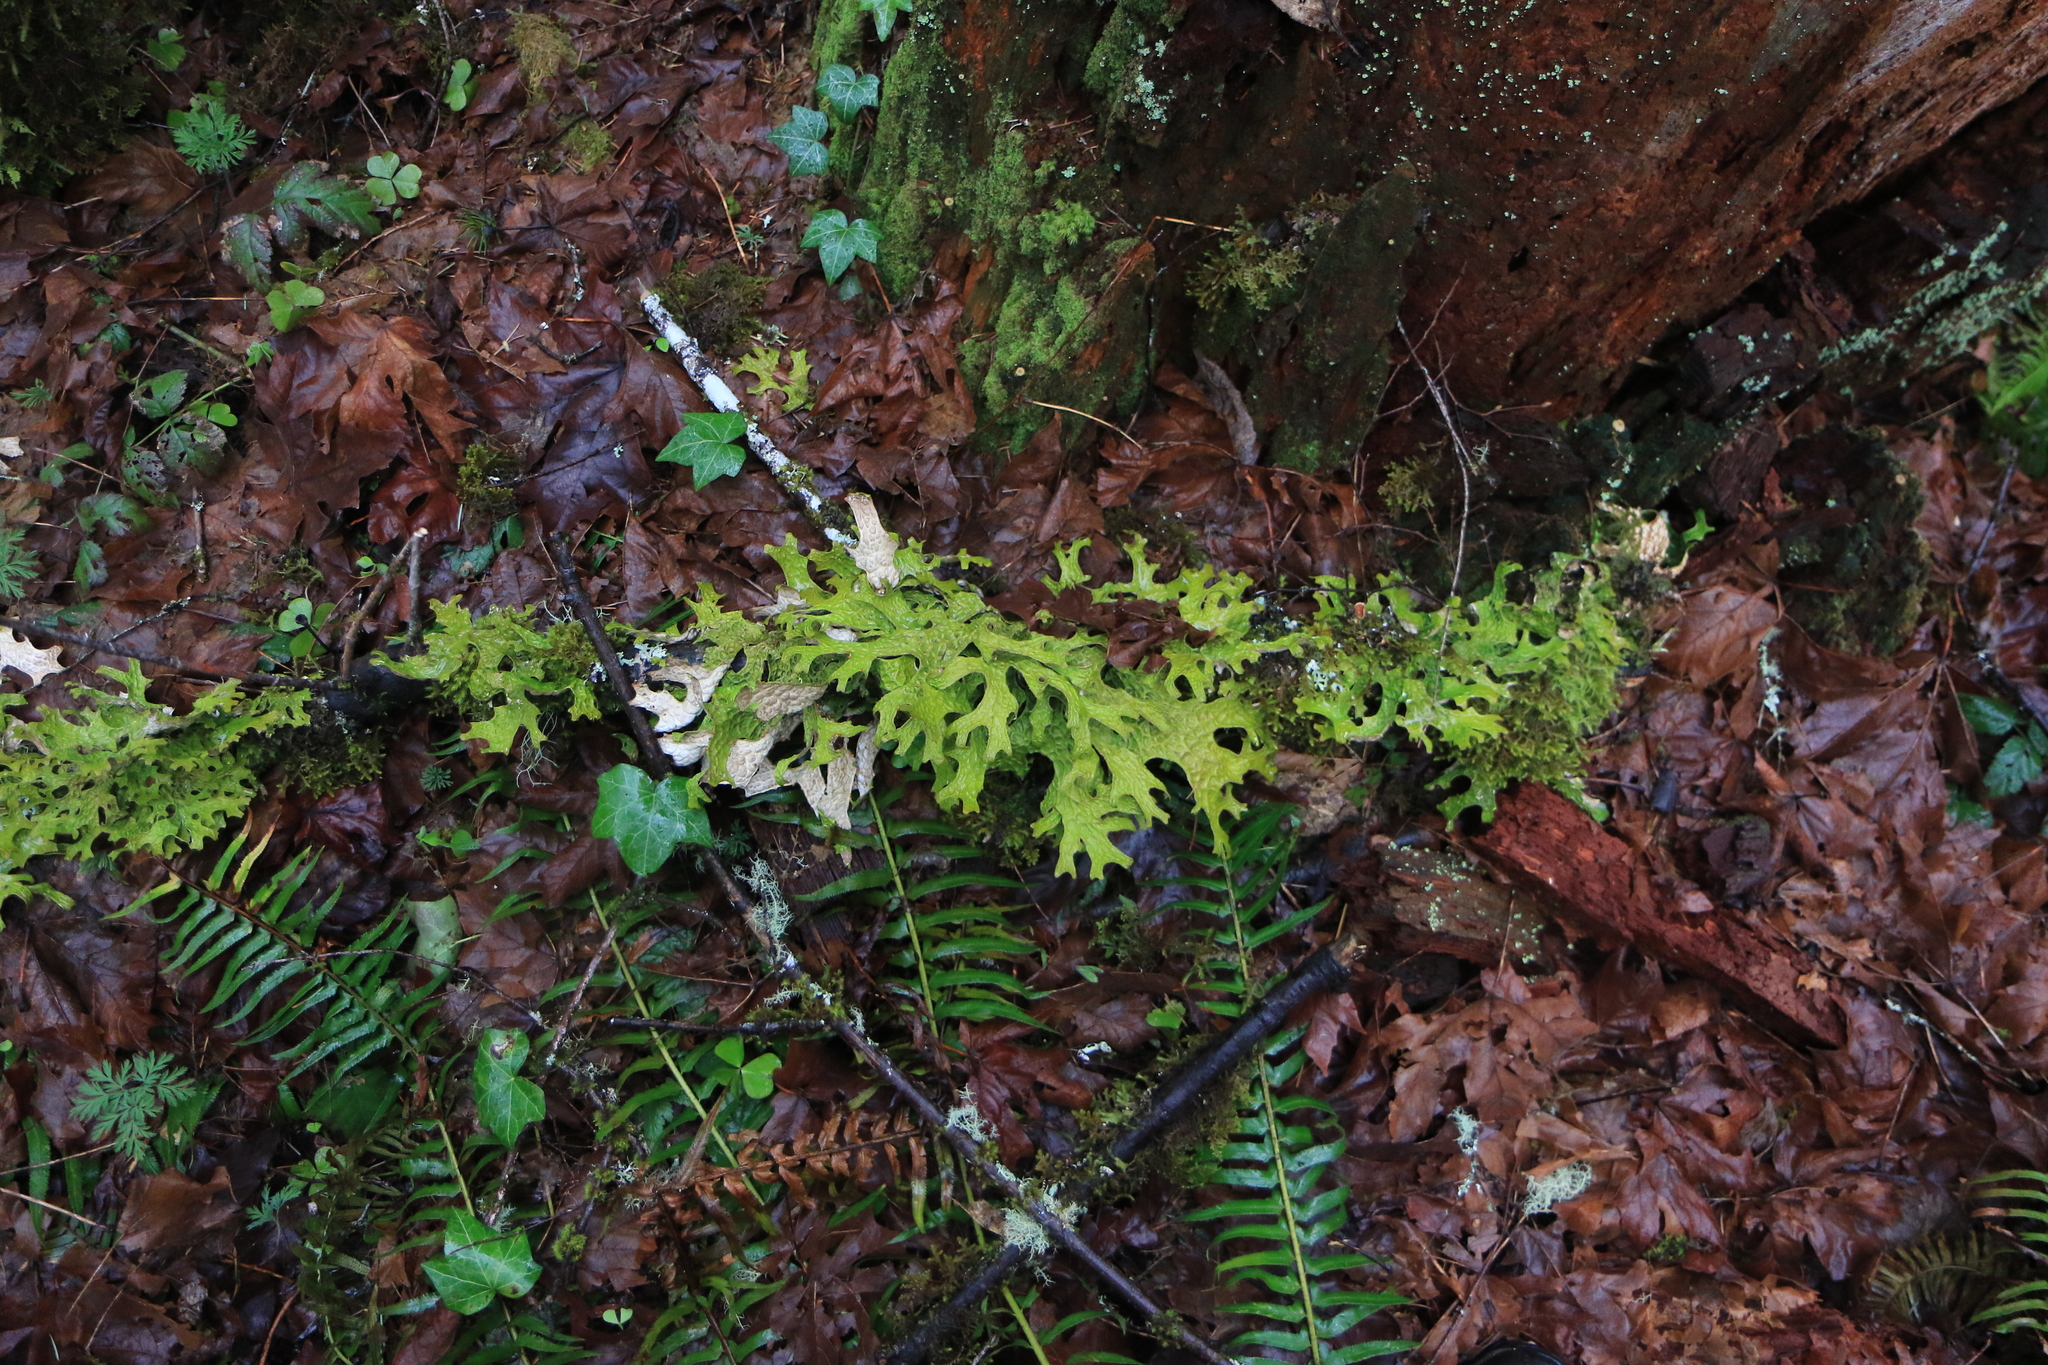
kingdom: Fungi
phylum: Ascomycota
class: Lecanoromycetes
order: Peltigerales
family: Lobariaceae
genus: Lobaria
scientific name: Lobaria pulmonaria
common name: Lungwort
